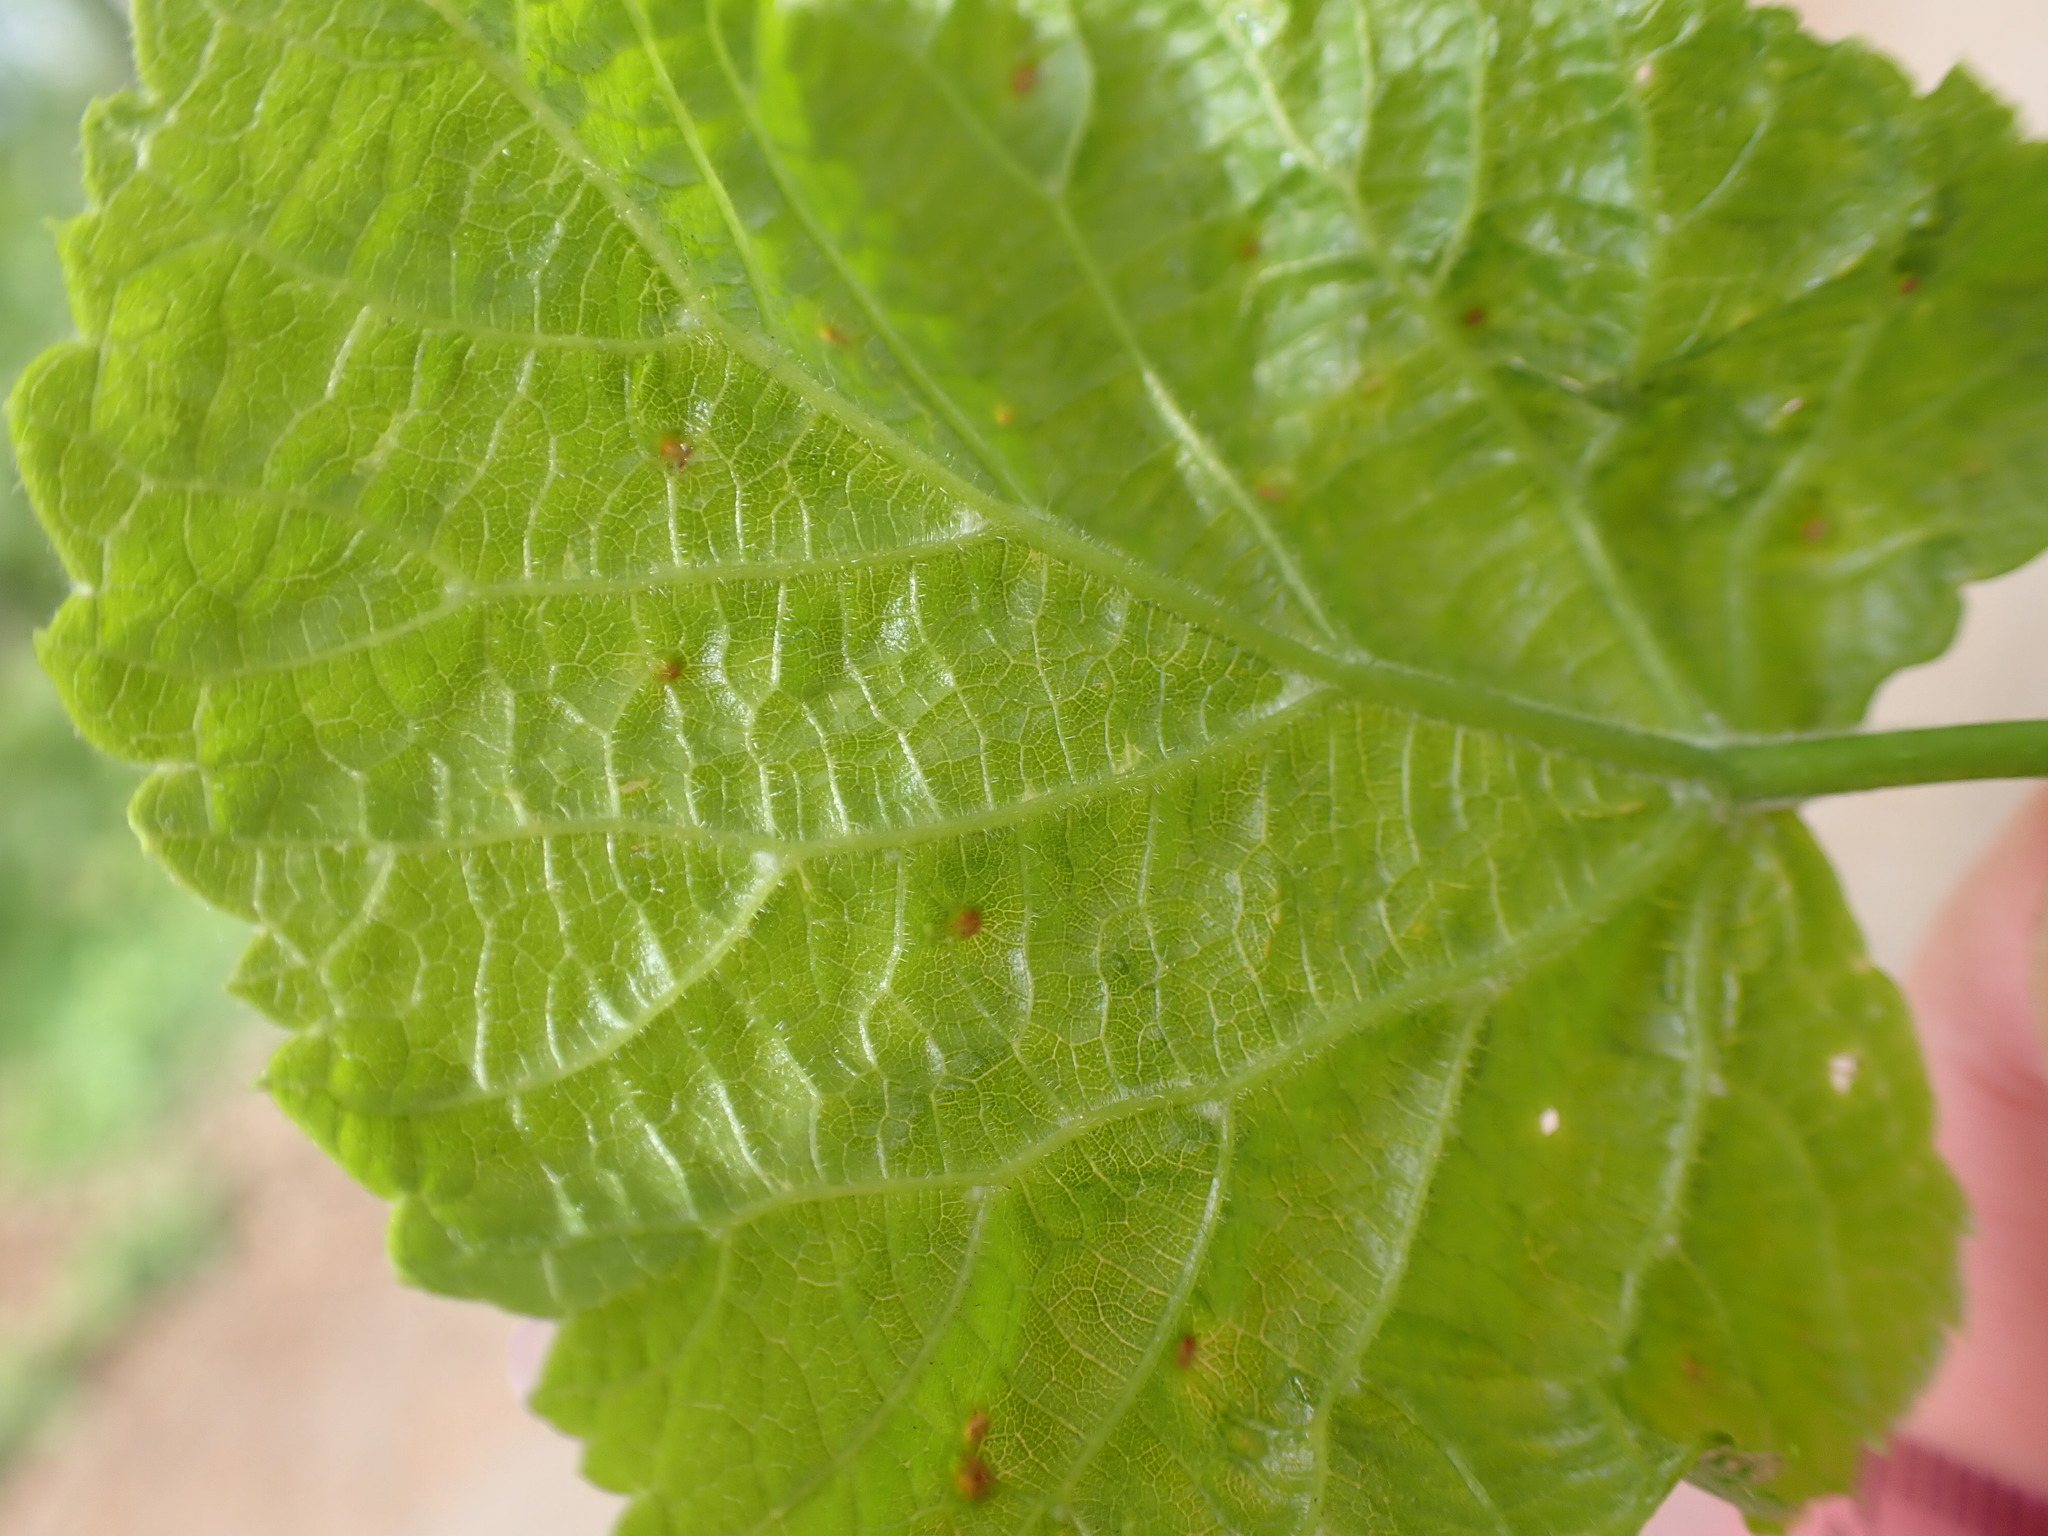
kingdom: Animalia
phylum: Arthropoda
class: Arachnida
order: Trombidiformes
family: Eriophyidae
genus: Eriophyes
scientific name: Eriophyes tiliae
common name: Red nail gall mite
